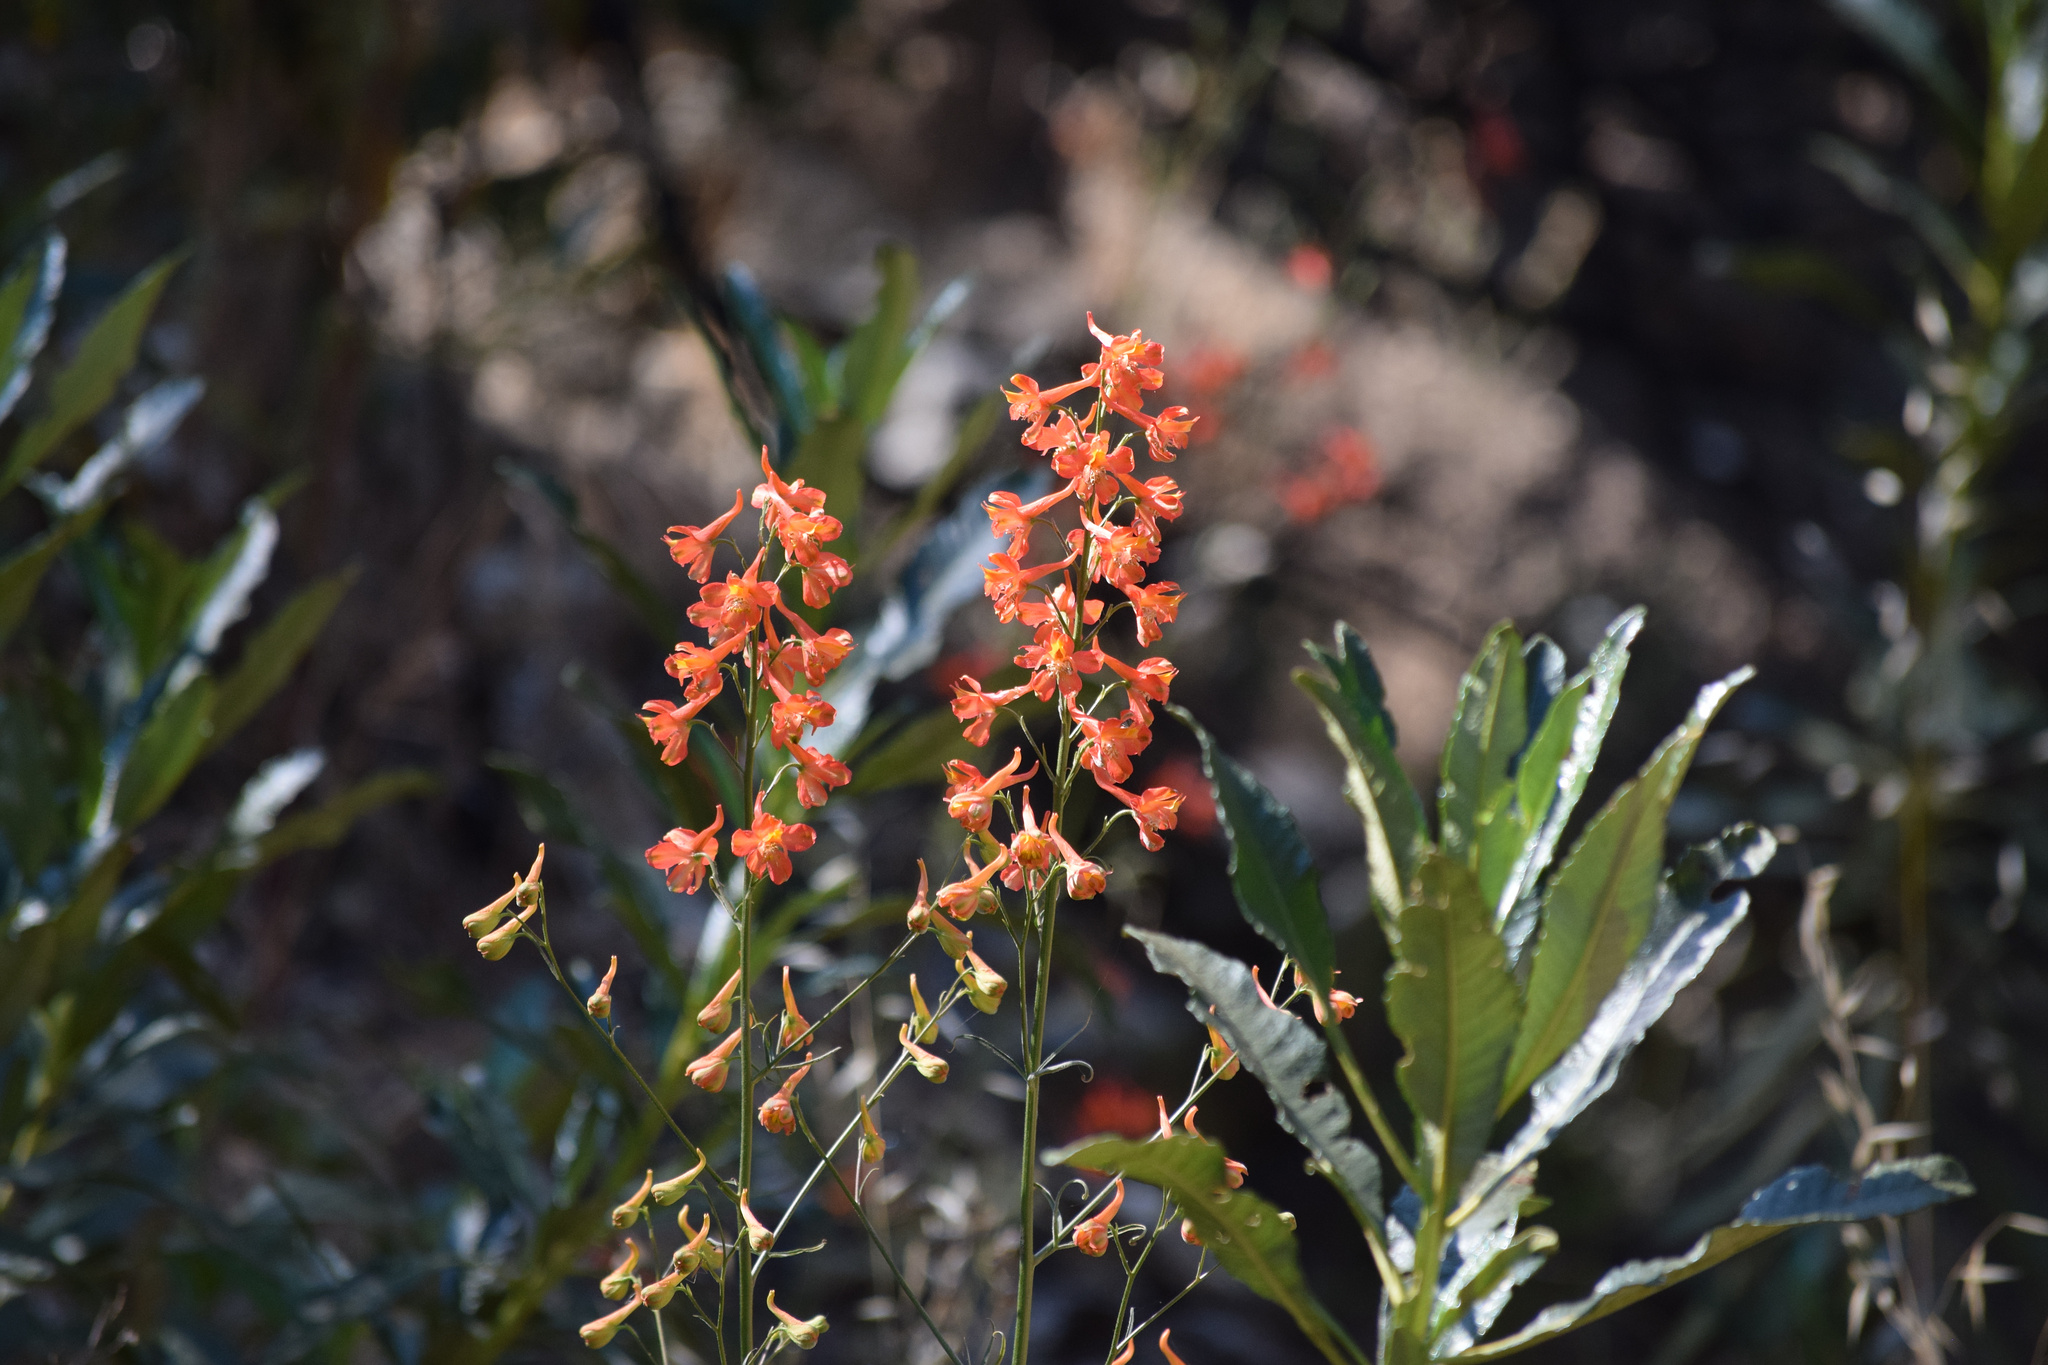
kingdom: Plantae
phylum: Tracheophyta
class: Magnoliopsida
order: Ranunculales
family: Ranunculaceae
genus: Delphinium
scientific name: Delphinium cardinale
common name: Scarlet larkspur
